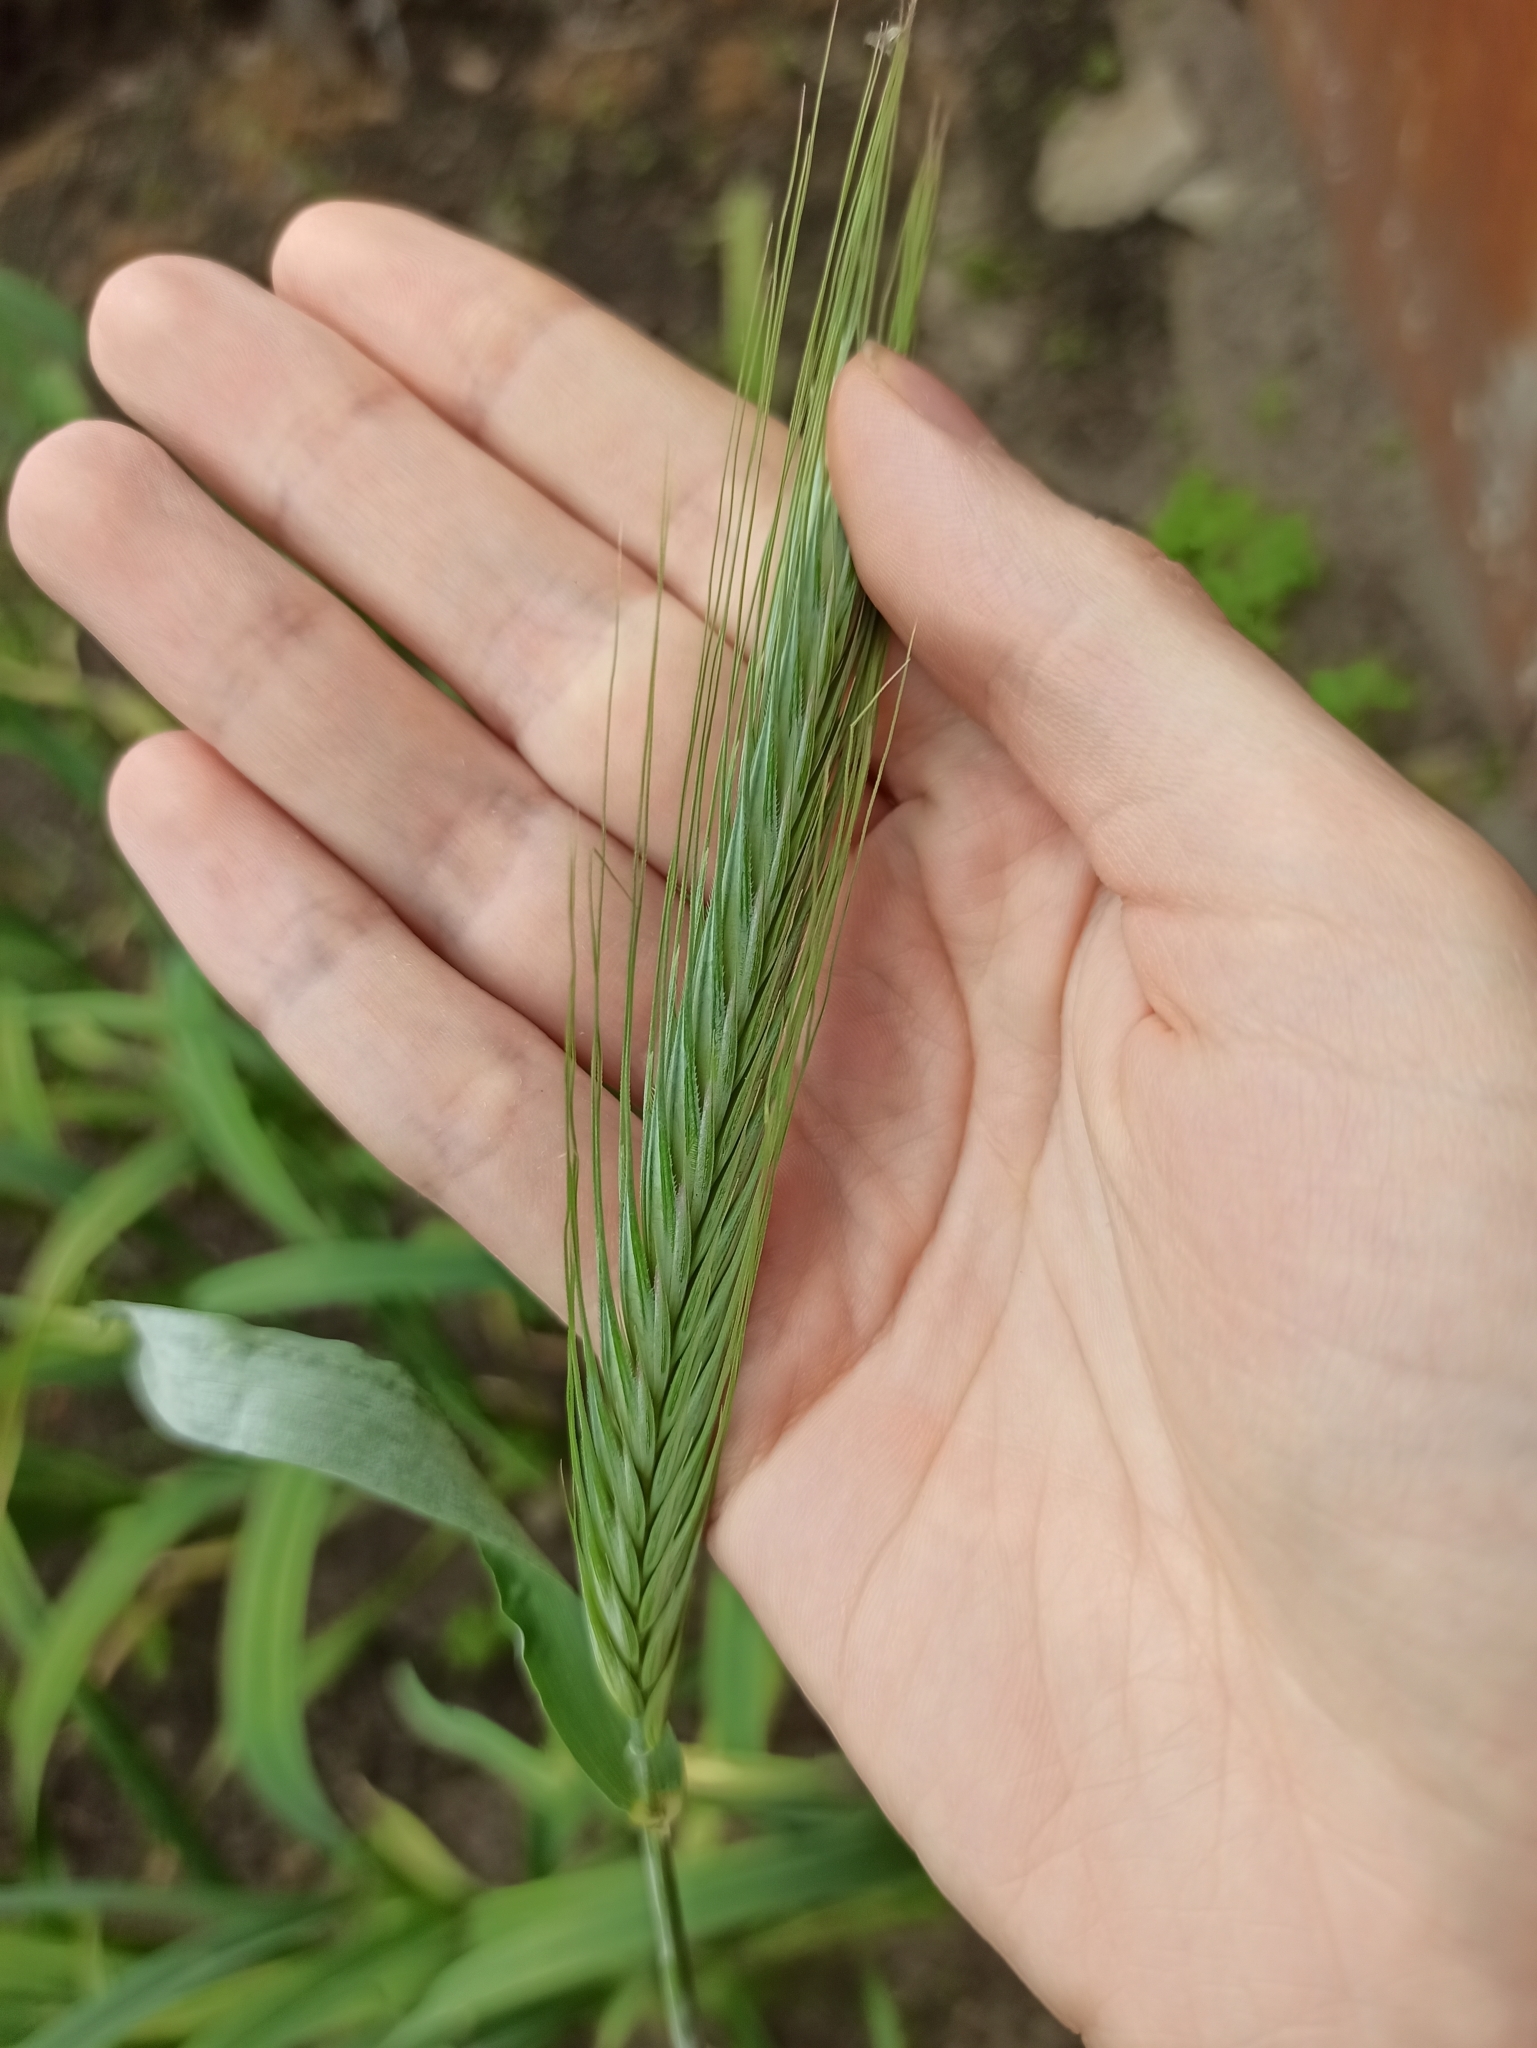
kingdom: Plantae
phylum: Tracheophyta
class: Liliopsida
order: Poales
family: Poaceae
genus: Secale
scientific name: Secale cereale
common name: Rye
